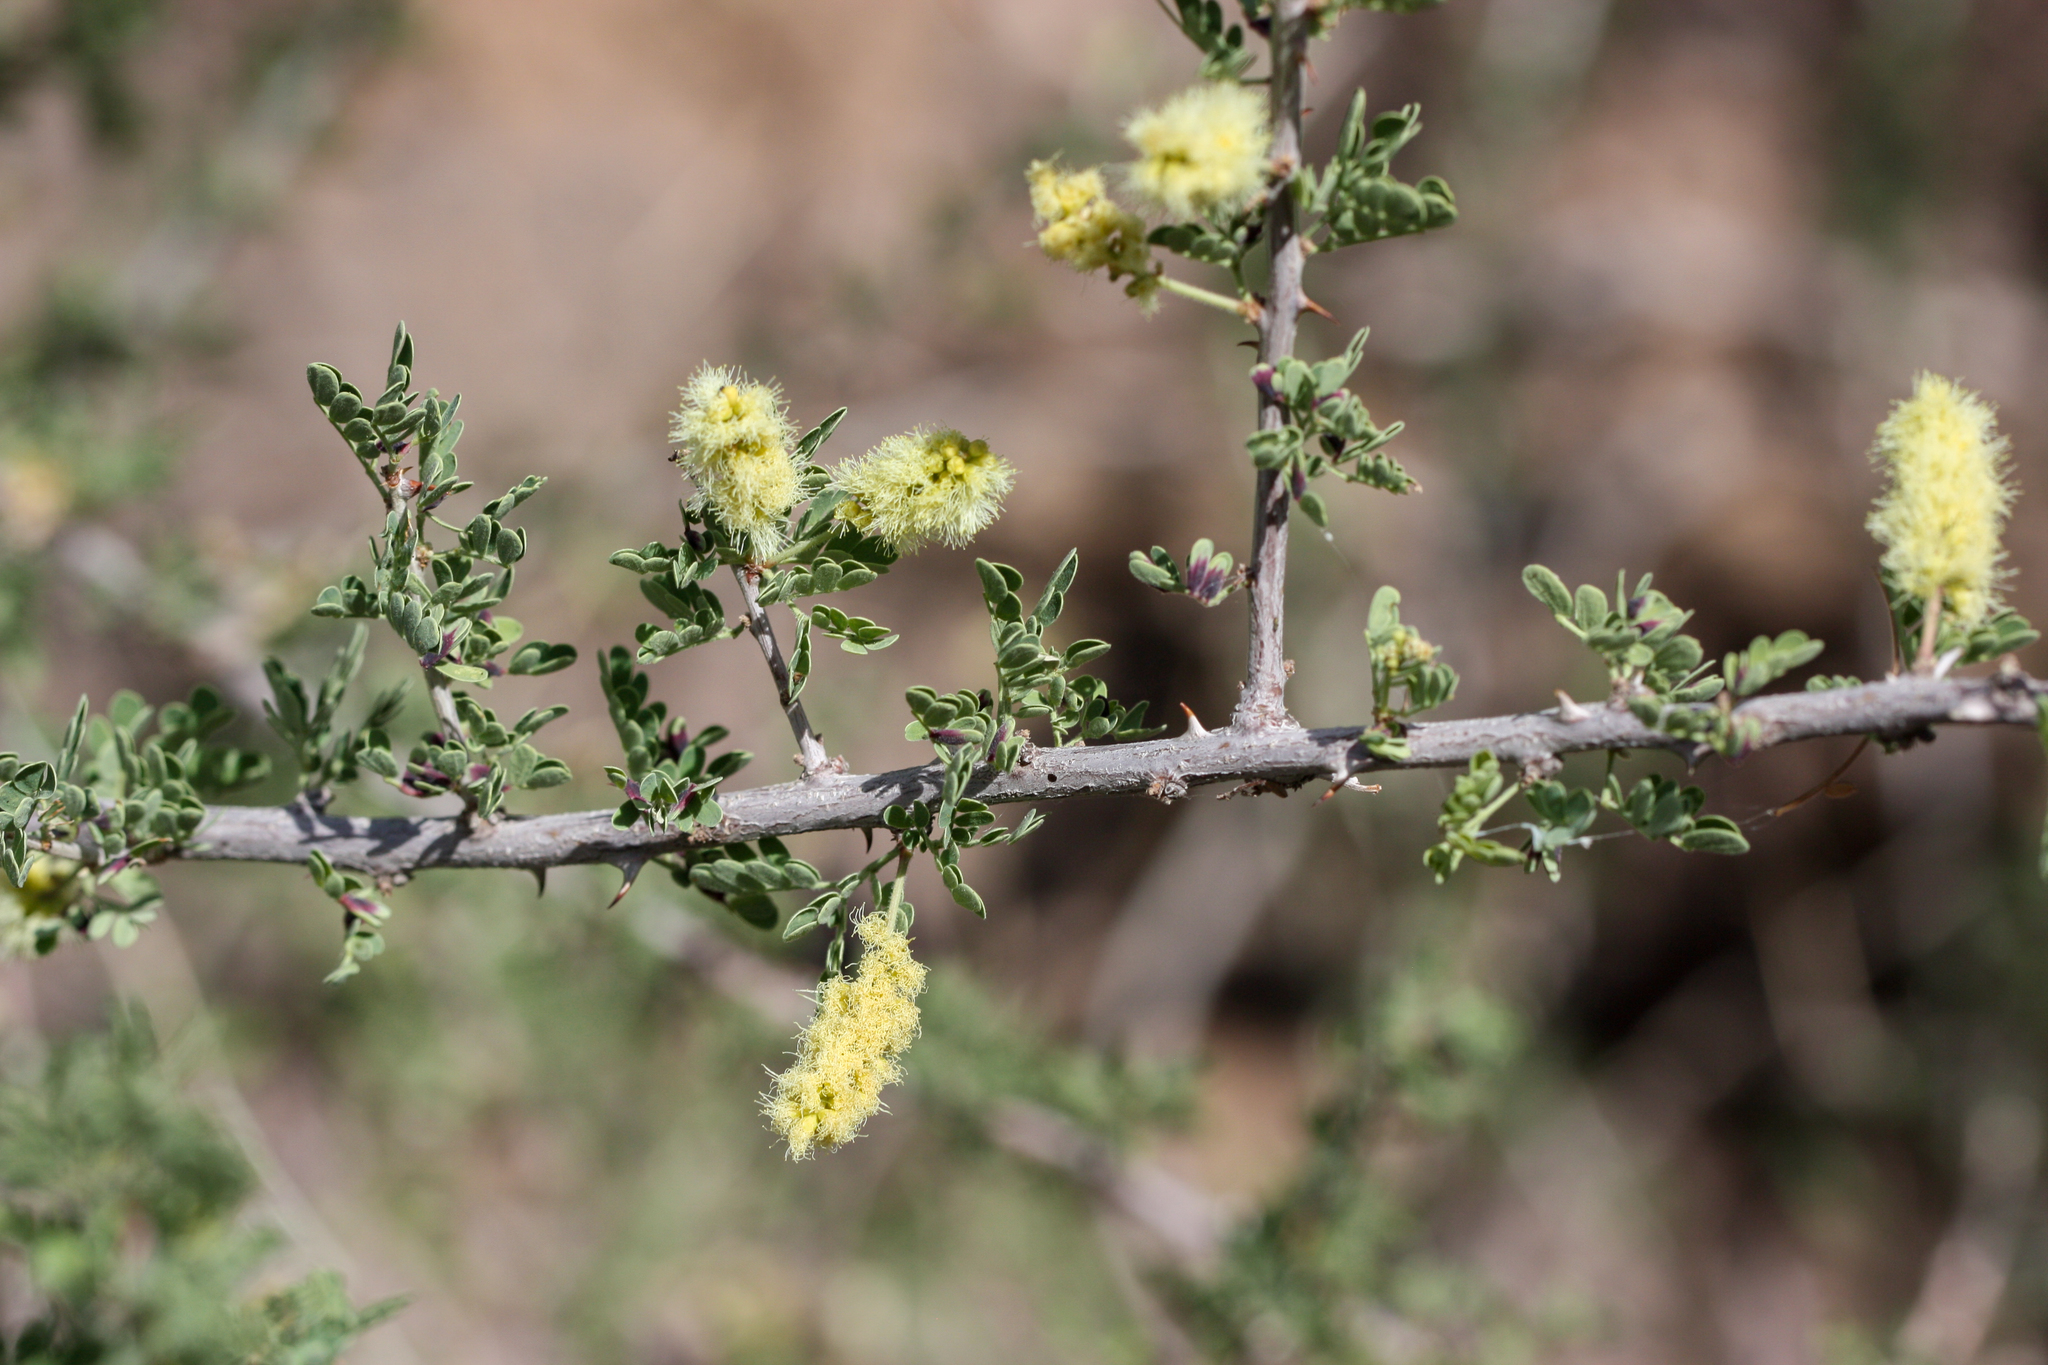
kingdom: Plantae
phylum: Tracheophyta
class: Magnoliopsida
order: Fabales
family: Fabaceae
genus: Senegalia
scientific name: Senegalia greggii
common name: Texas-mimosa
